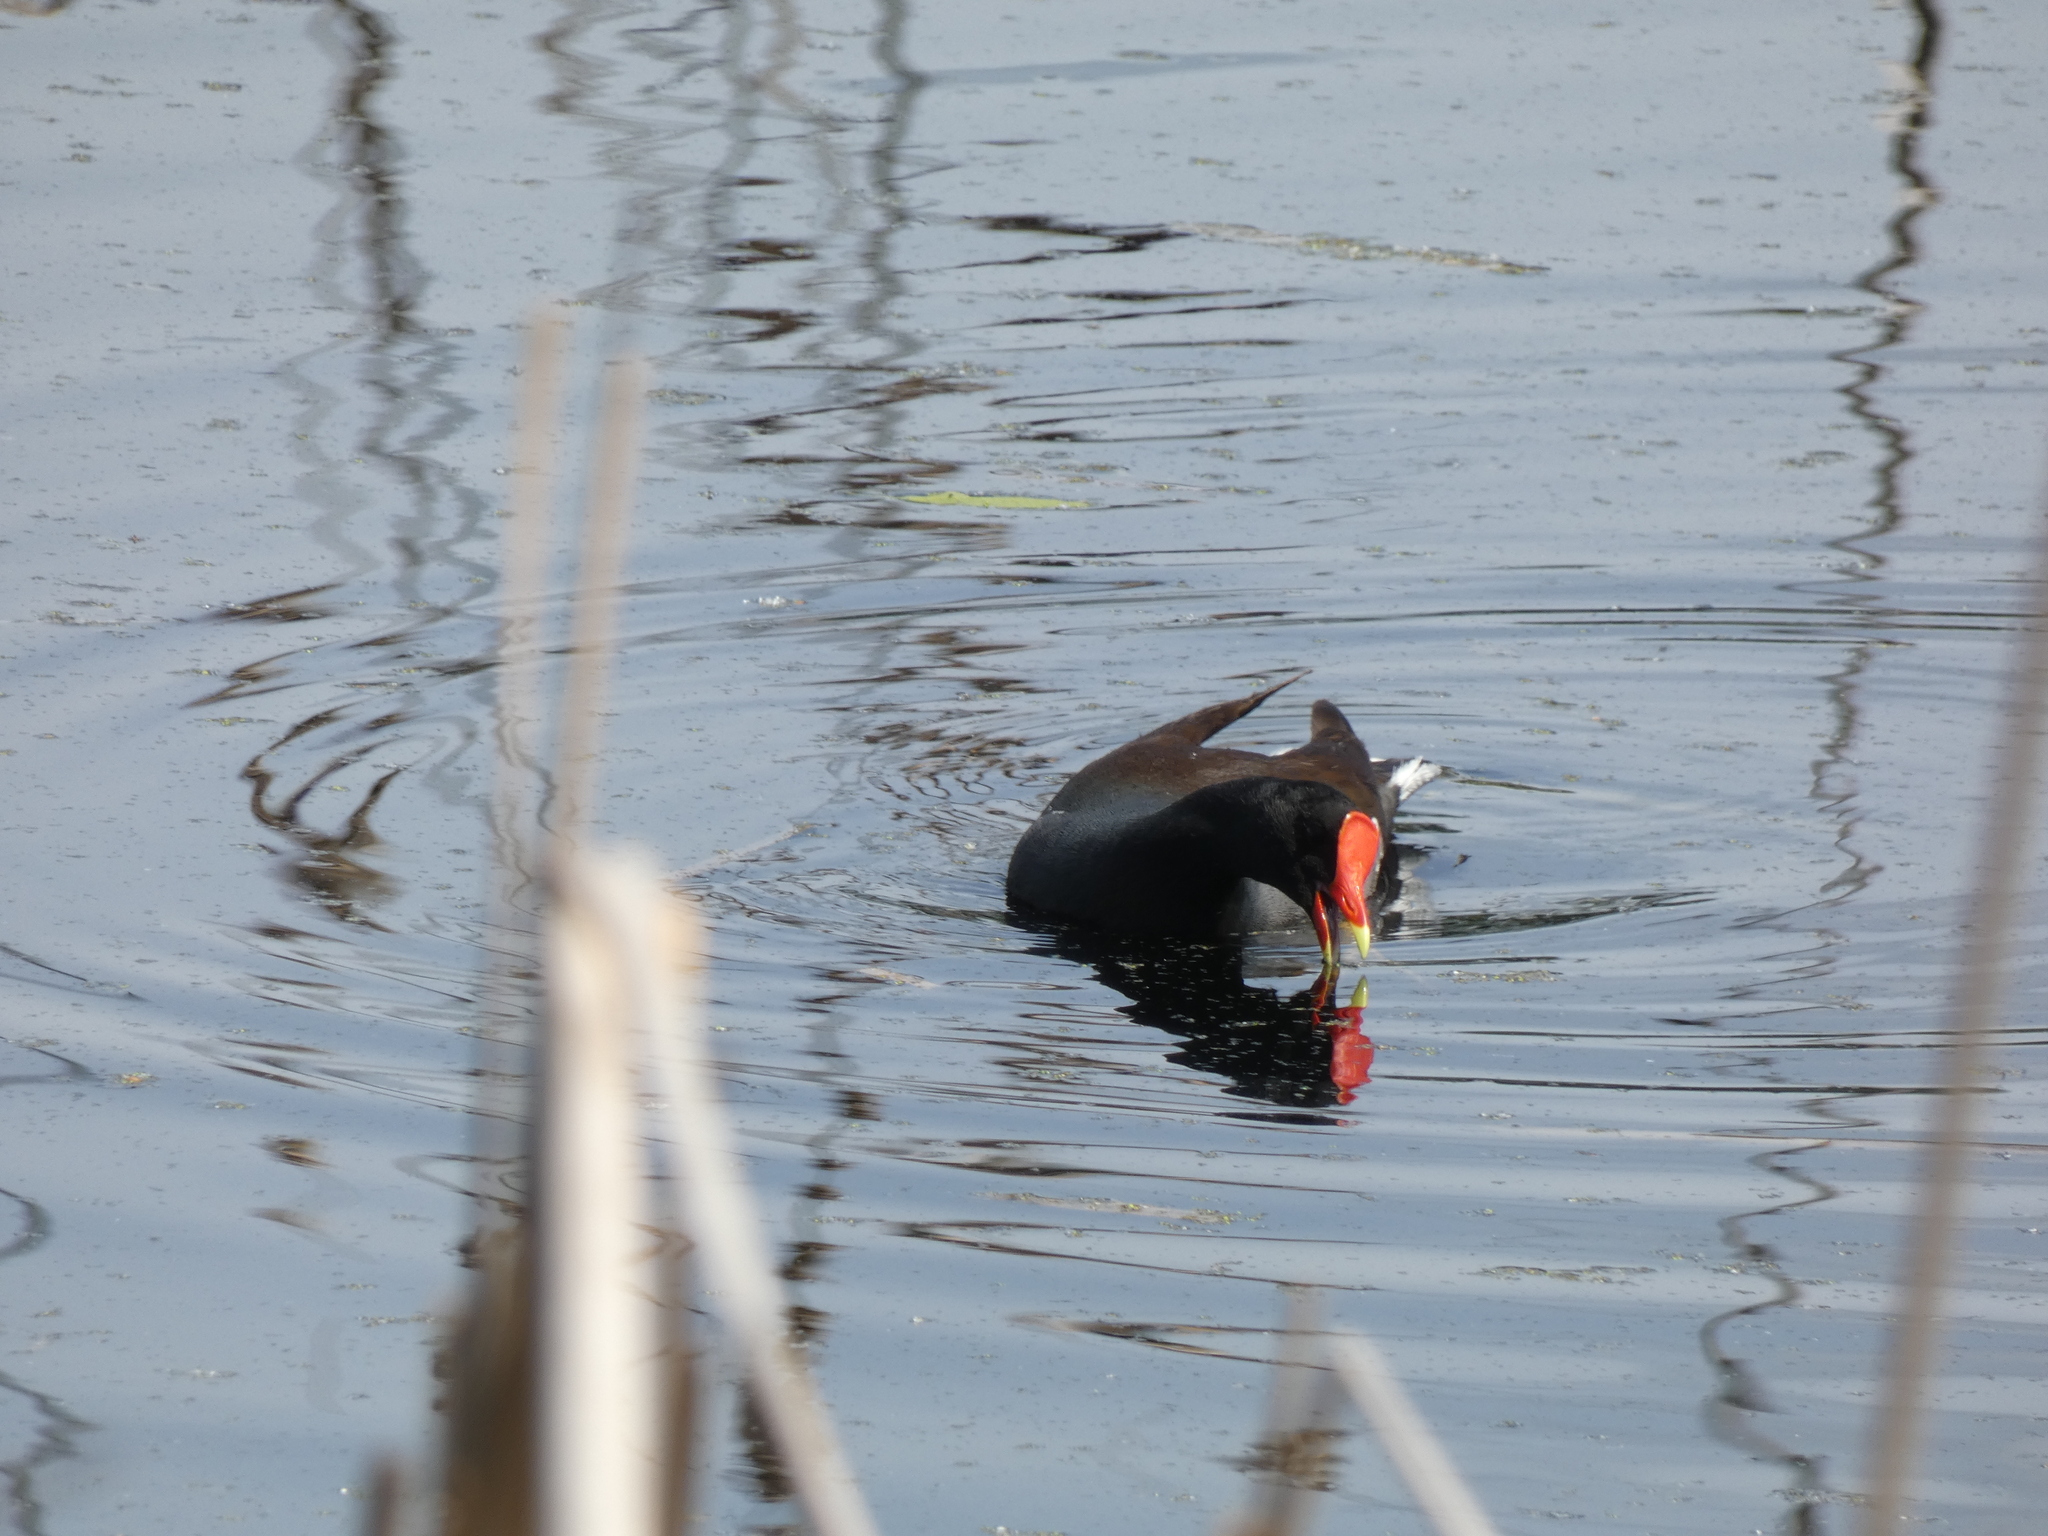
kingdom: Animalia
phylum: Chordata
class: Aves
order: Gruiformes
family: Rallidae
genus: Gallinula
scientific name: Gallinula chloropus
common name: Common moorhen
